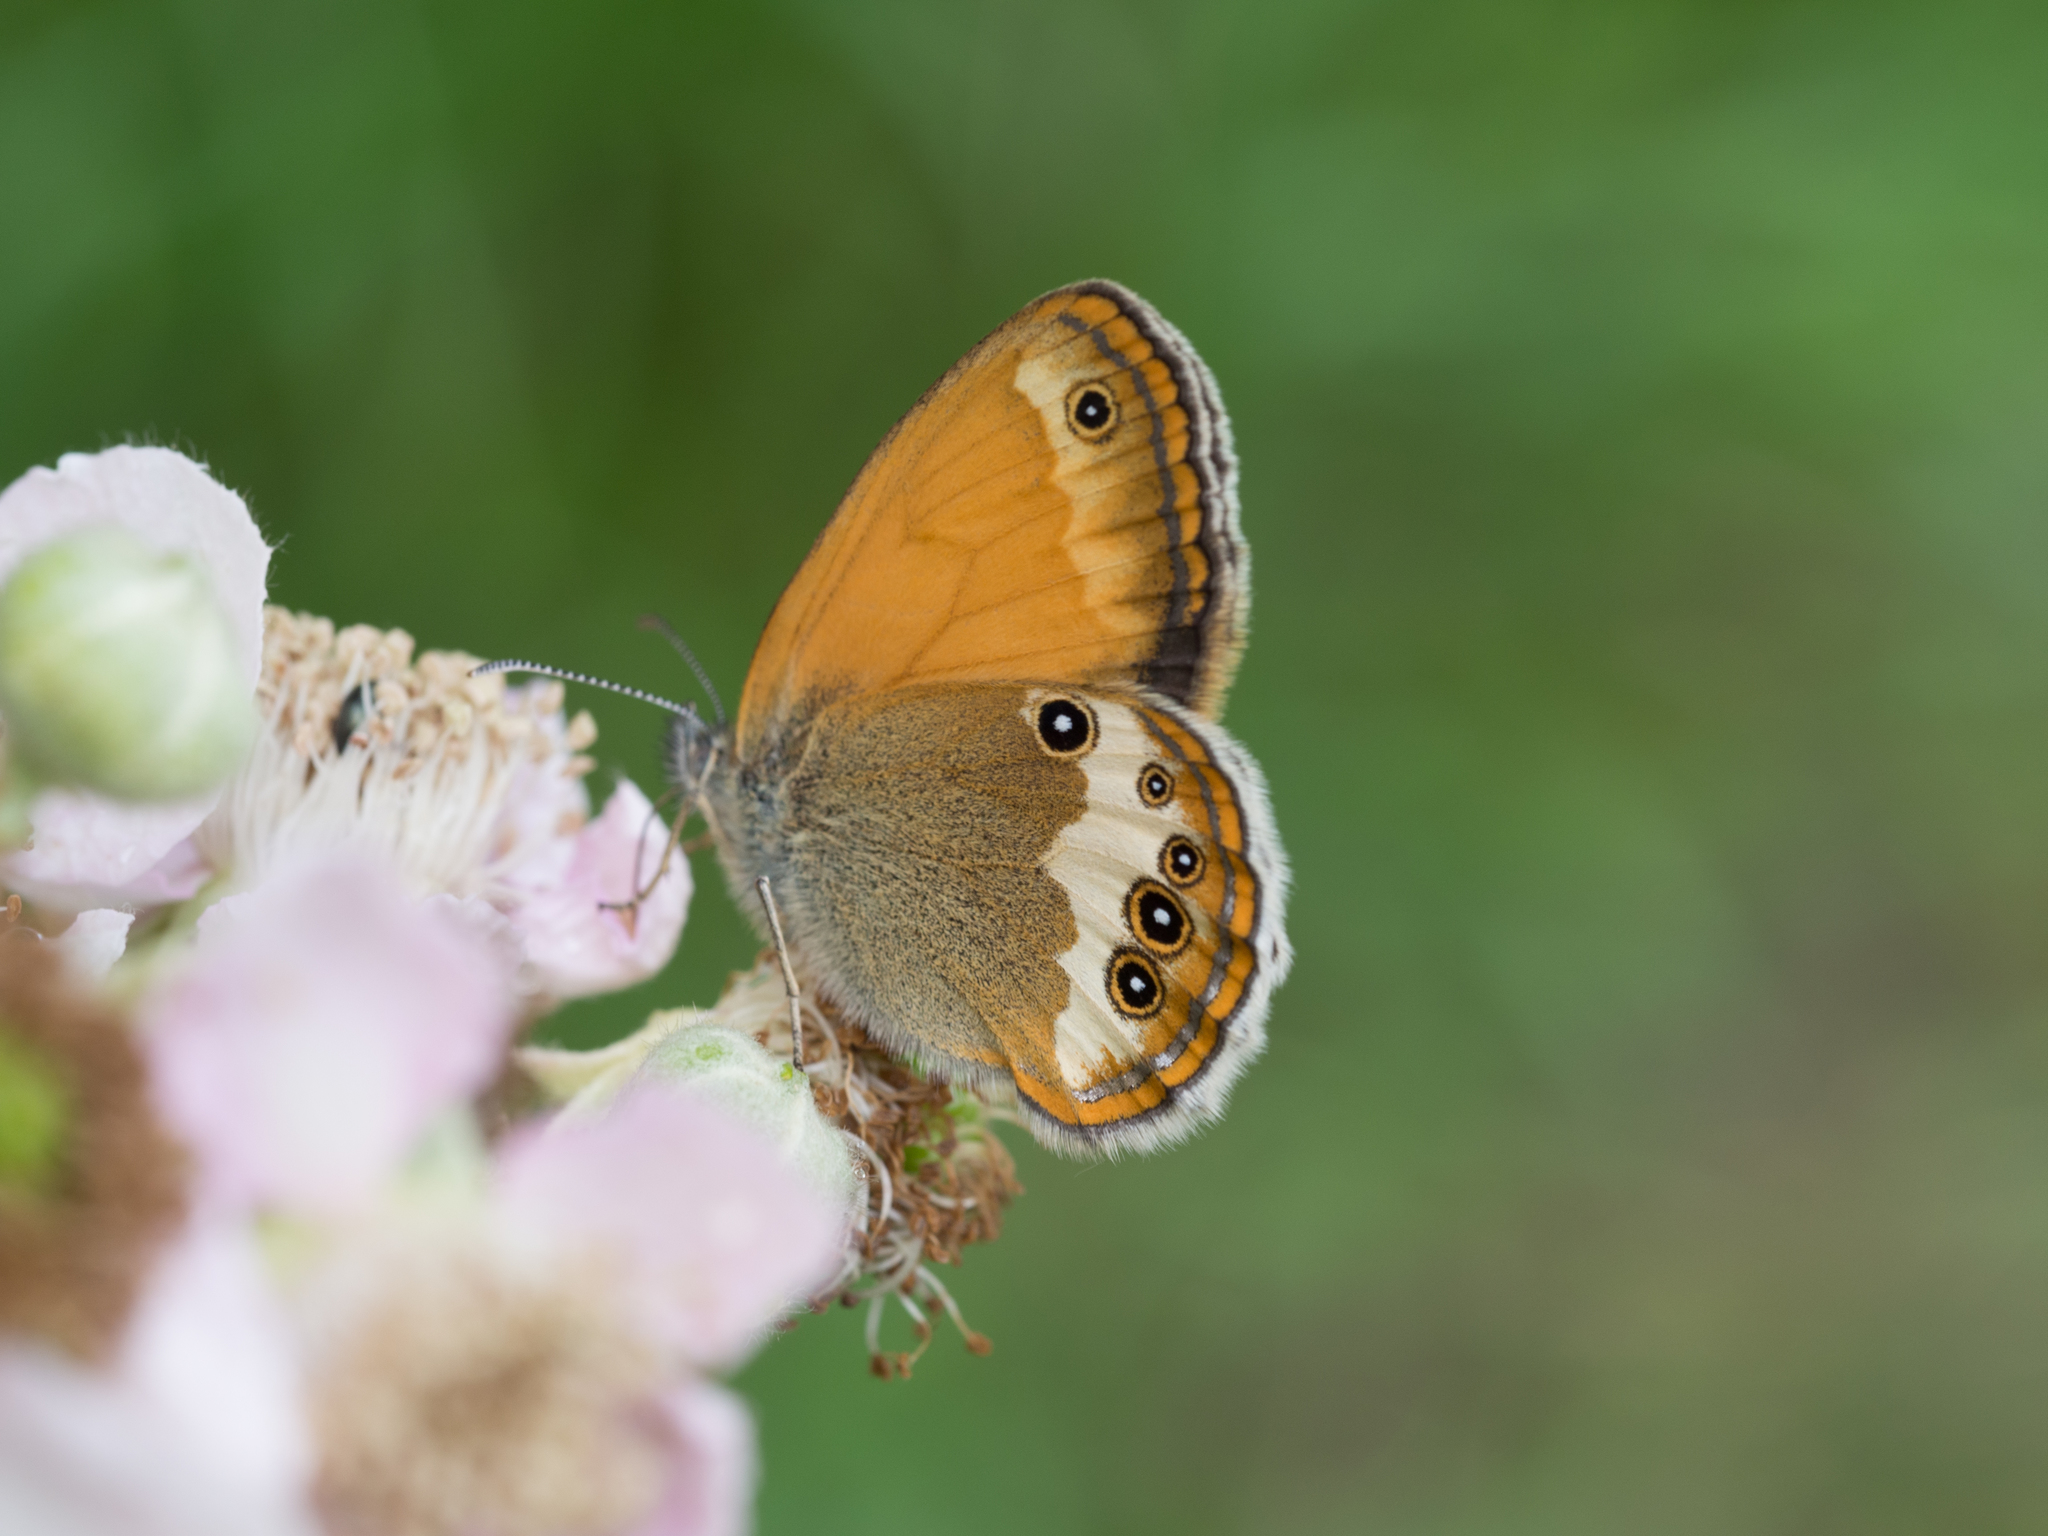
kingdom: Animalia
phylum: Arthropoda
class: Insecta
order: Lepidoptera
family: Nymphalidae
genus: Coenonympha
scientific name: Coenonympha arcania
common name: Pearly heath
